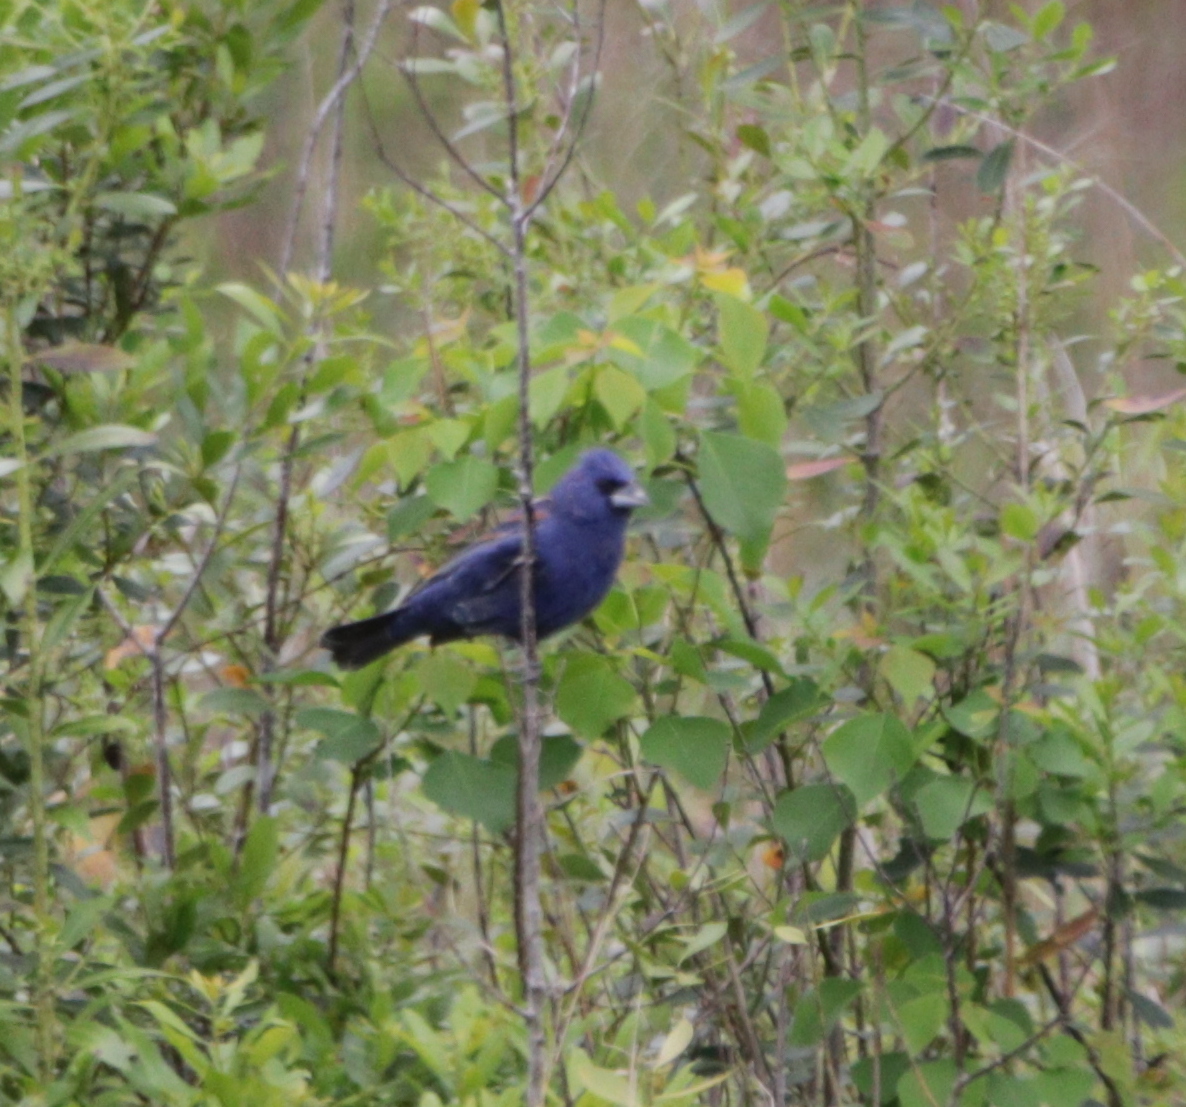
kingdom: Animalia
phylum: Chordata
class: Aves
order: Passeriformes
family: Cardinalidae
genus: Passerina
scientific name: Passerina caerulea
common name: Blue grosbeak
